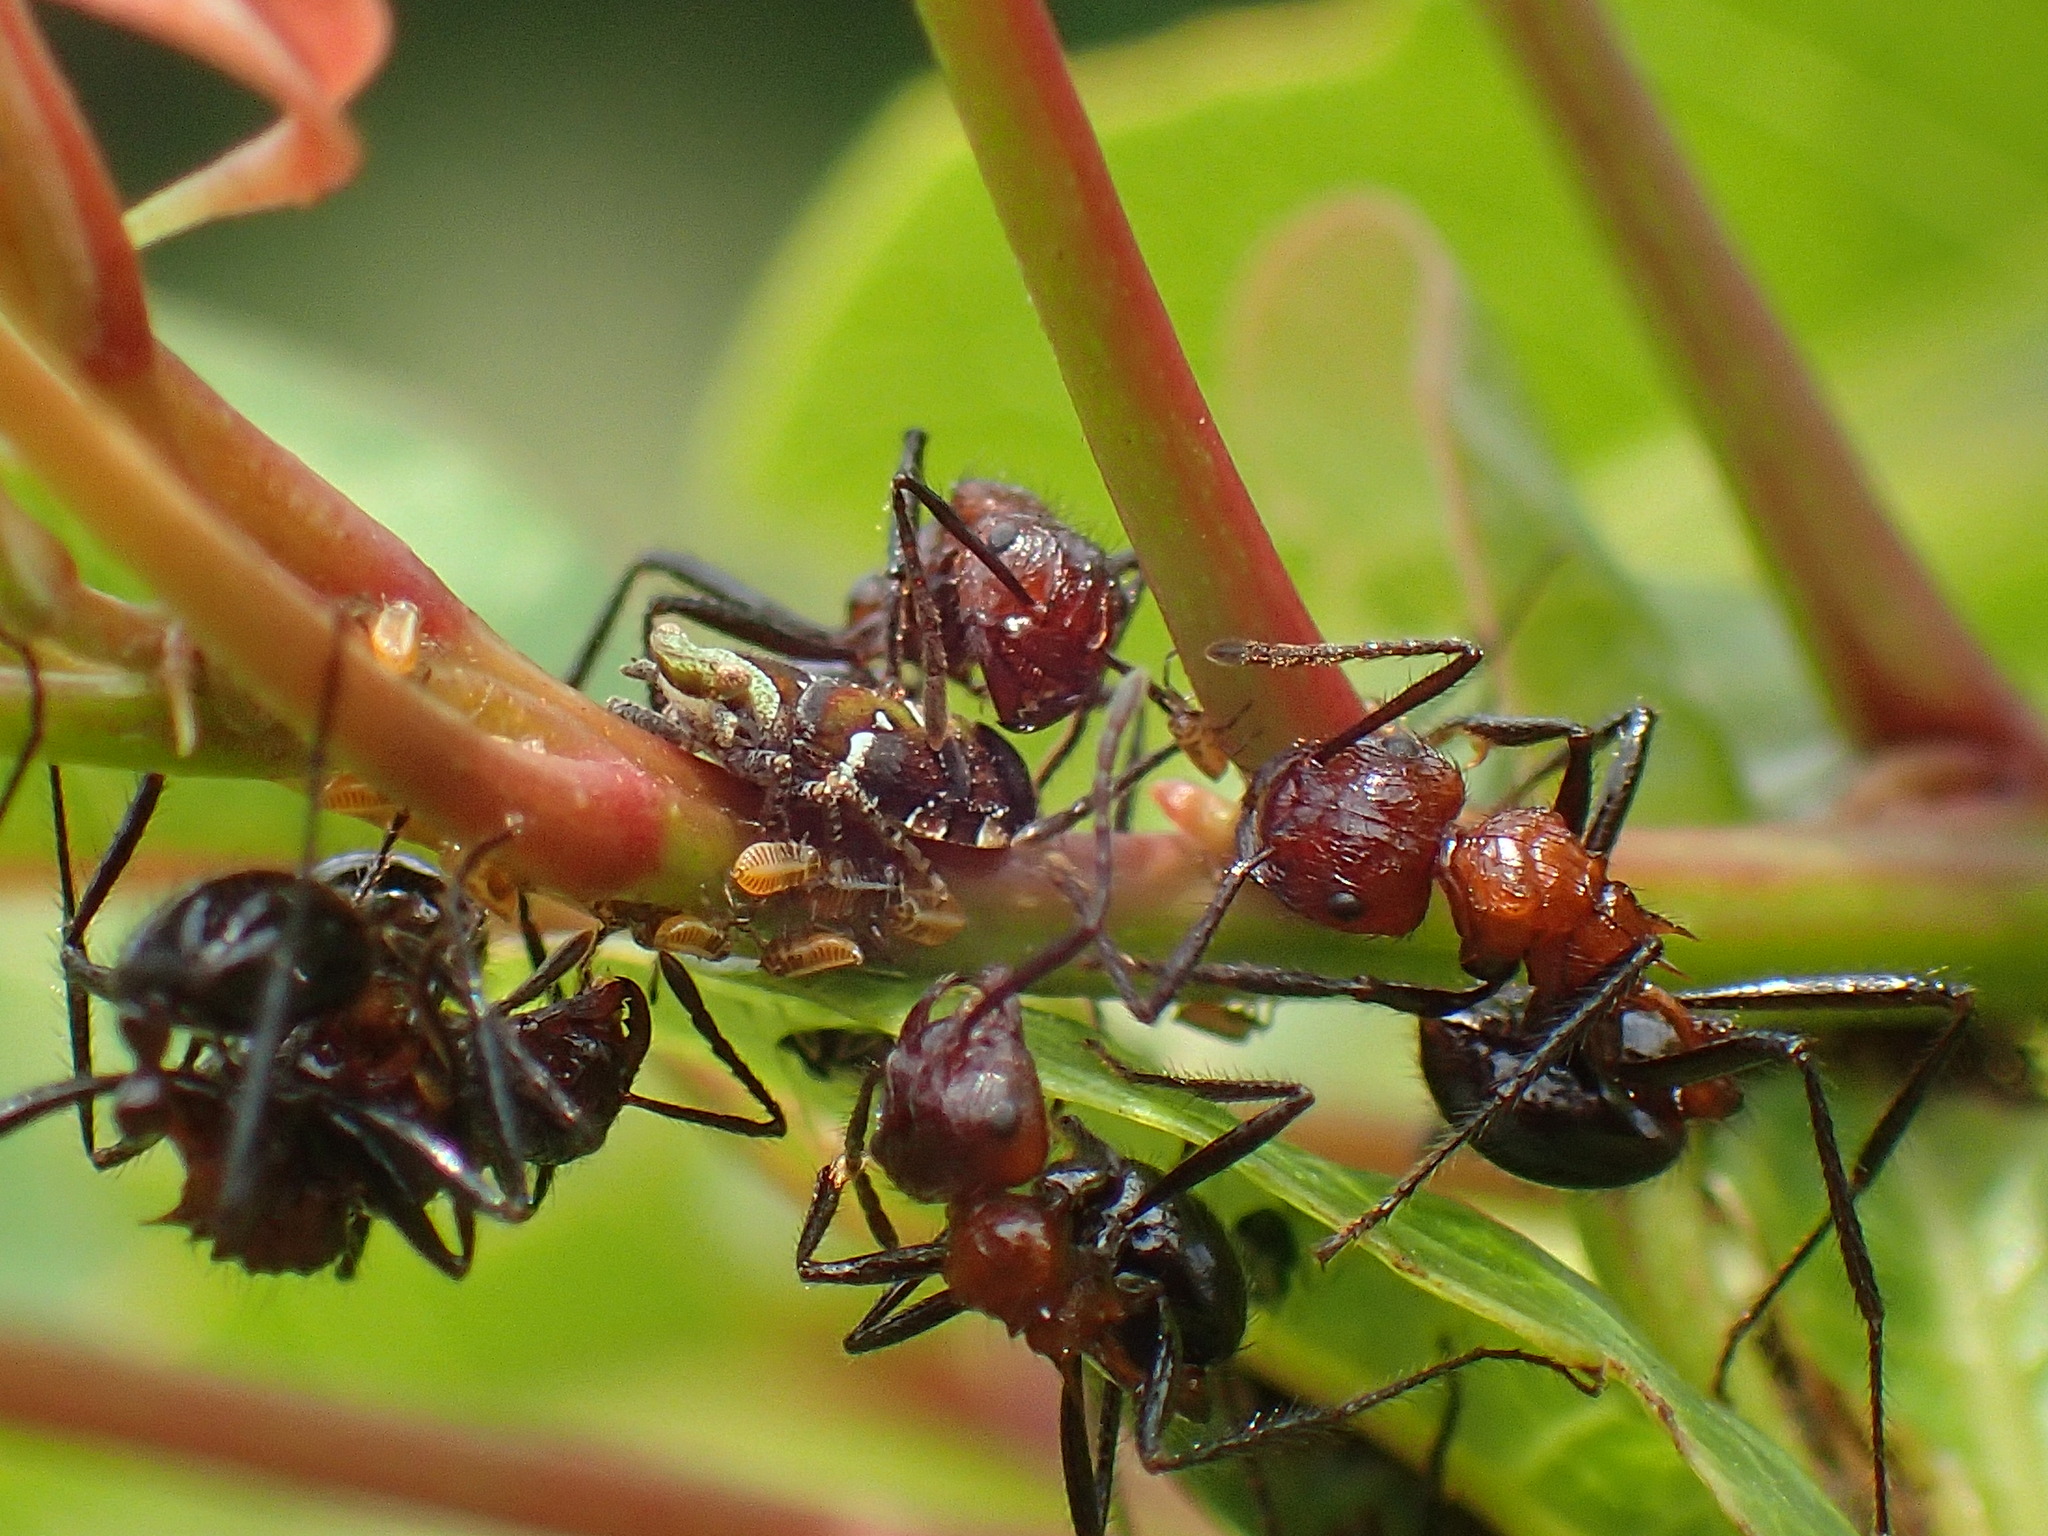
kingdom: Animalia
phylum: Arthropoda
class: Insecta
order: Hemiptera
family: Tettigometridae
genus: Nototettigometra
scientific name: Nototettigometra patruelis
